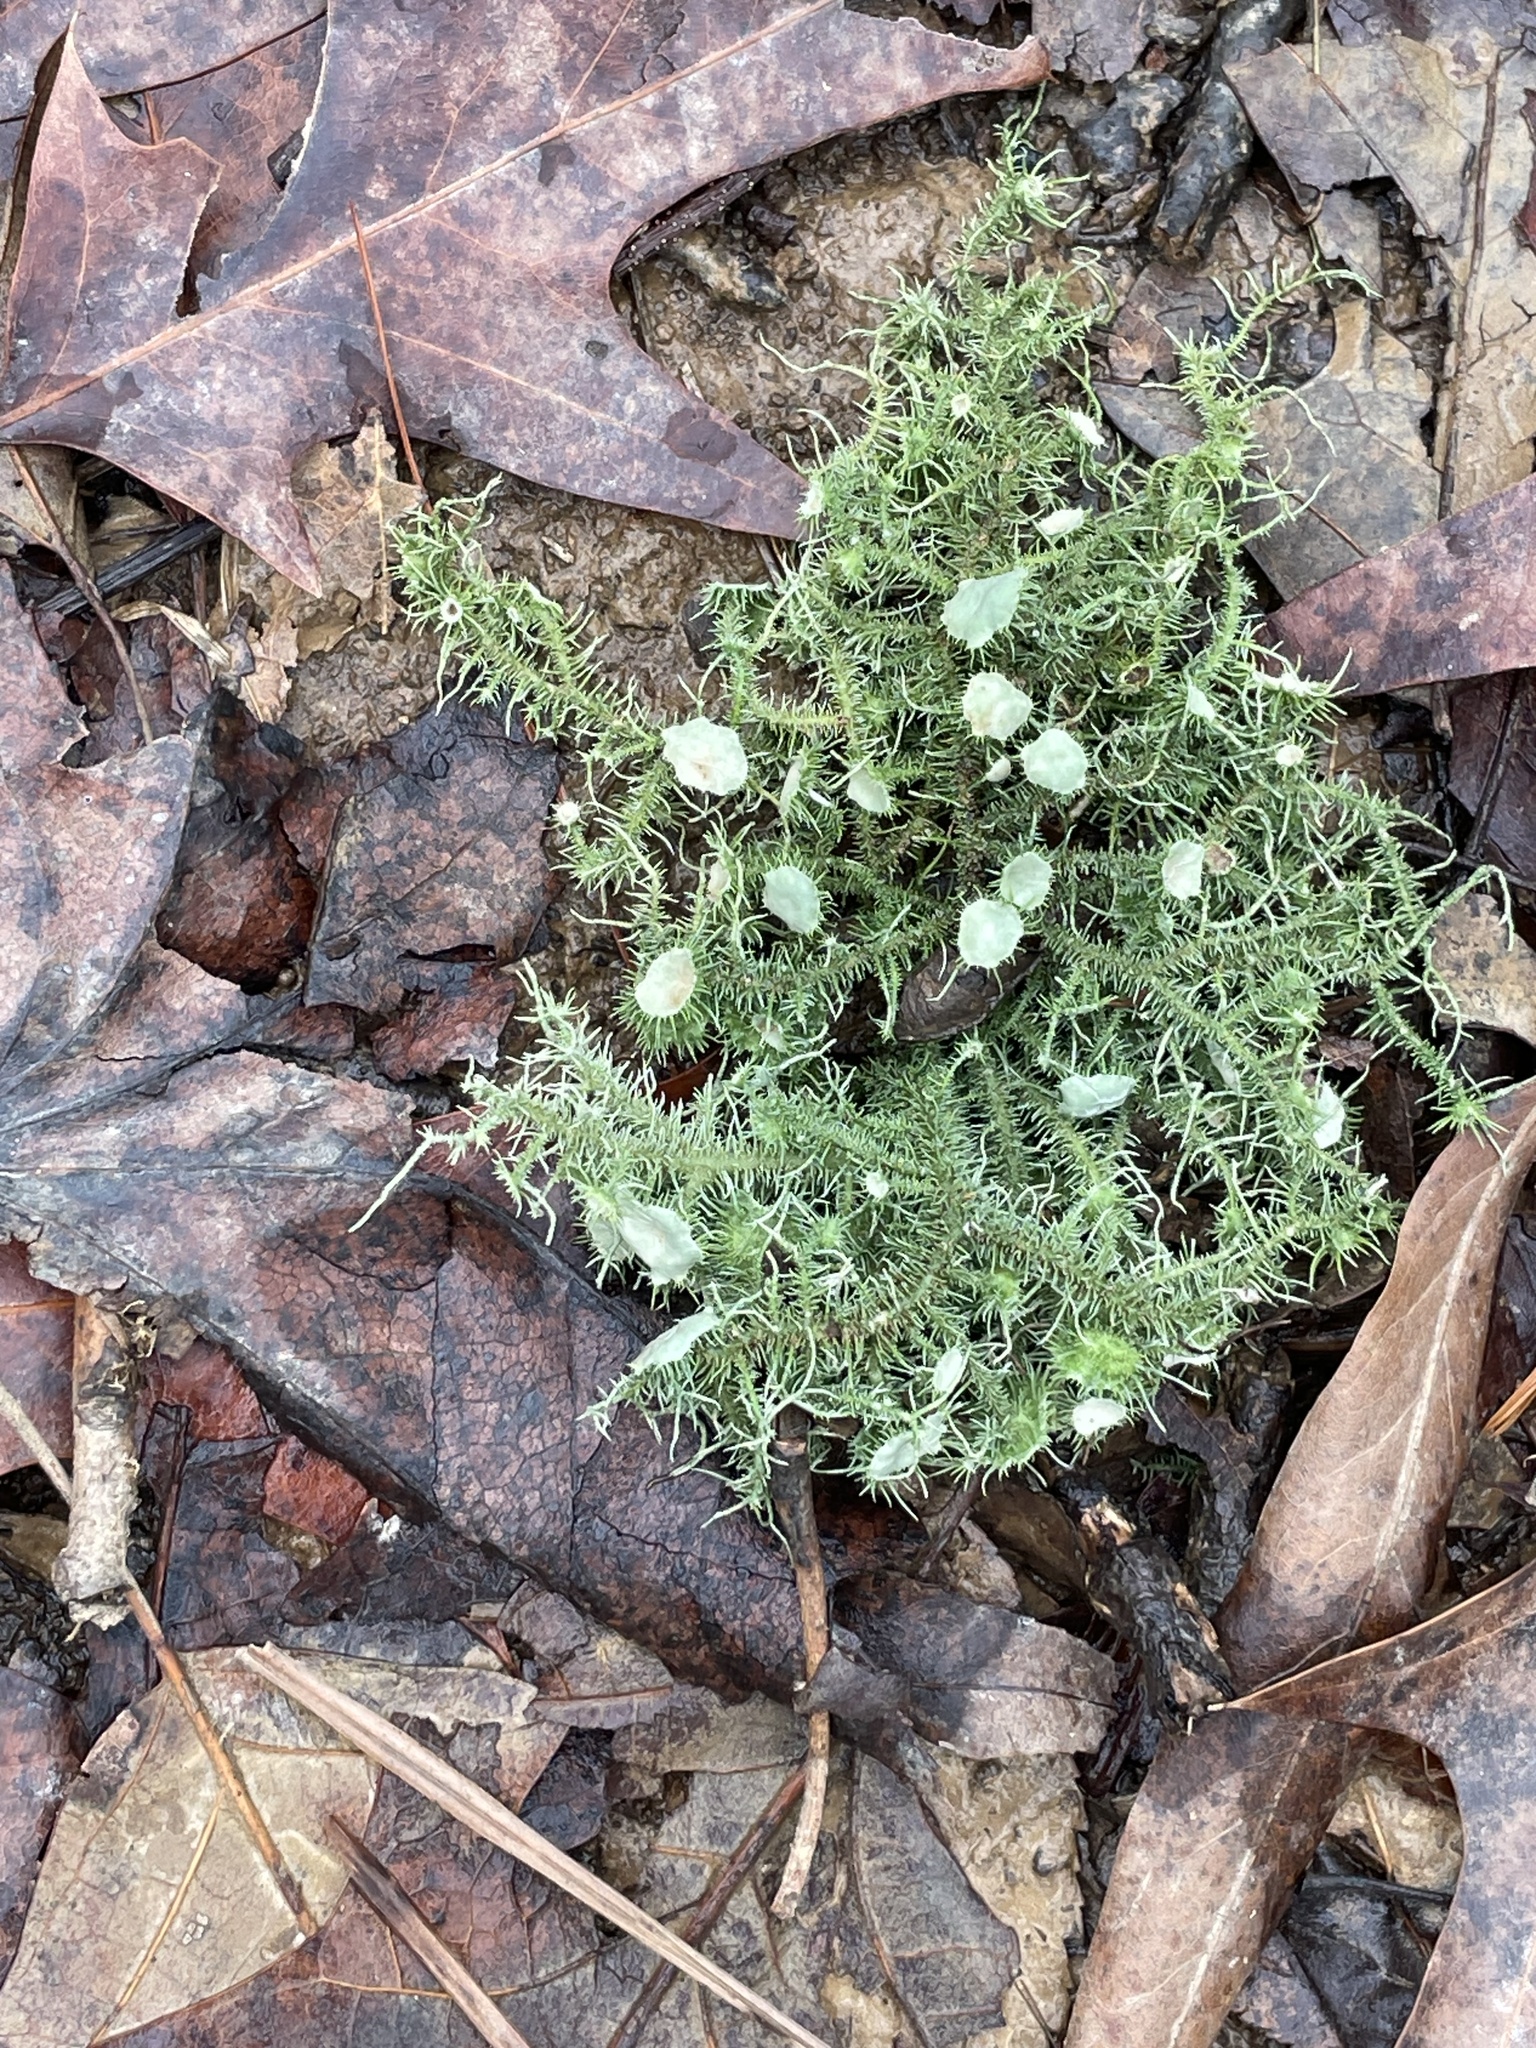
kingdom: Fungi
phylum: Ascomycota
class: Lecanoromycetes
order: Lecanorales
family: Parmeliaceae
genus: Usnea
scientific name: Usnea strigosa
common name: Bushy beard lichen
